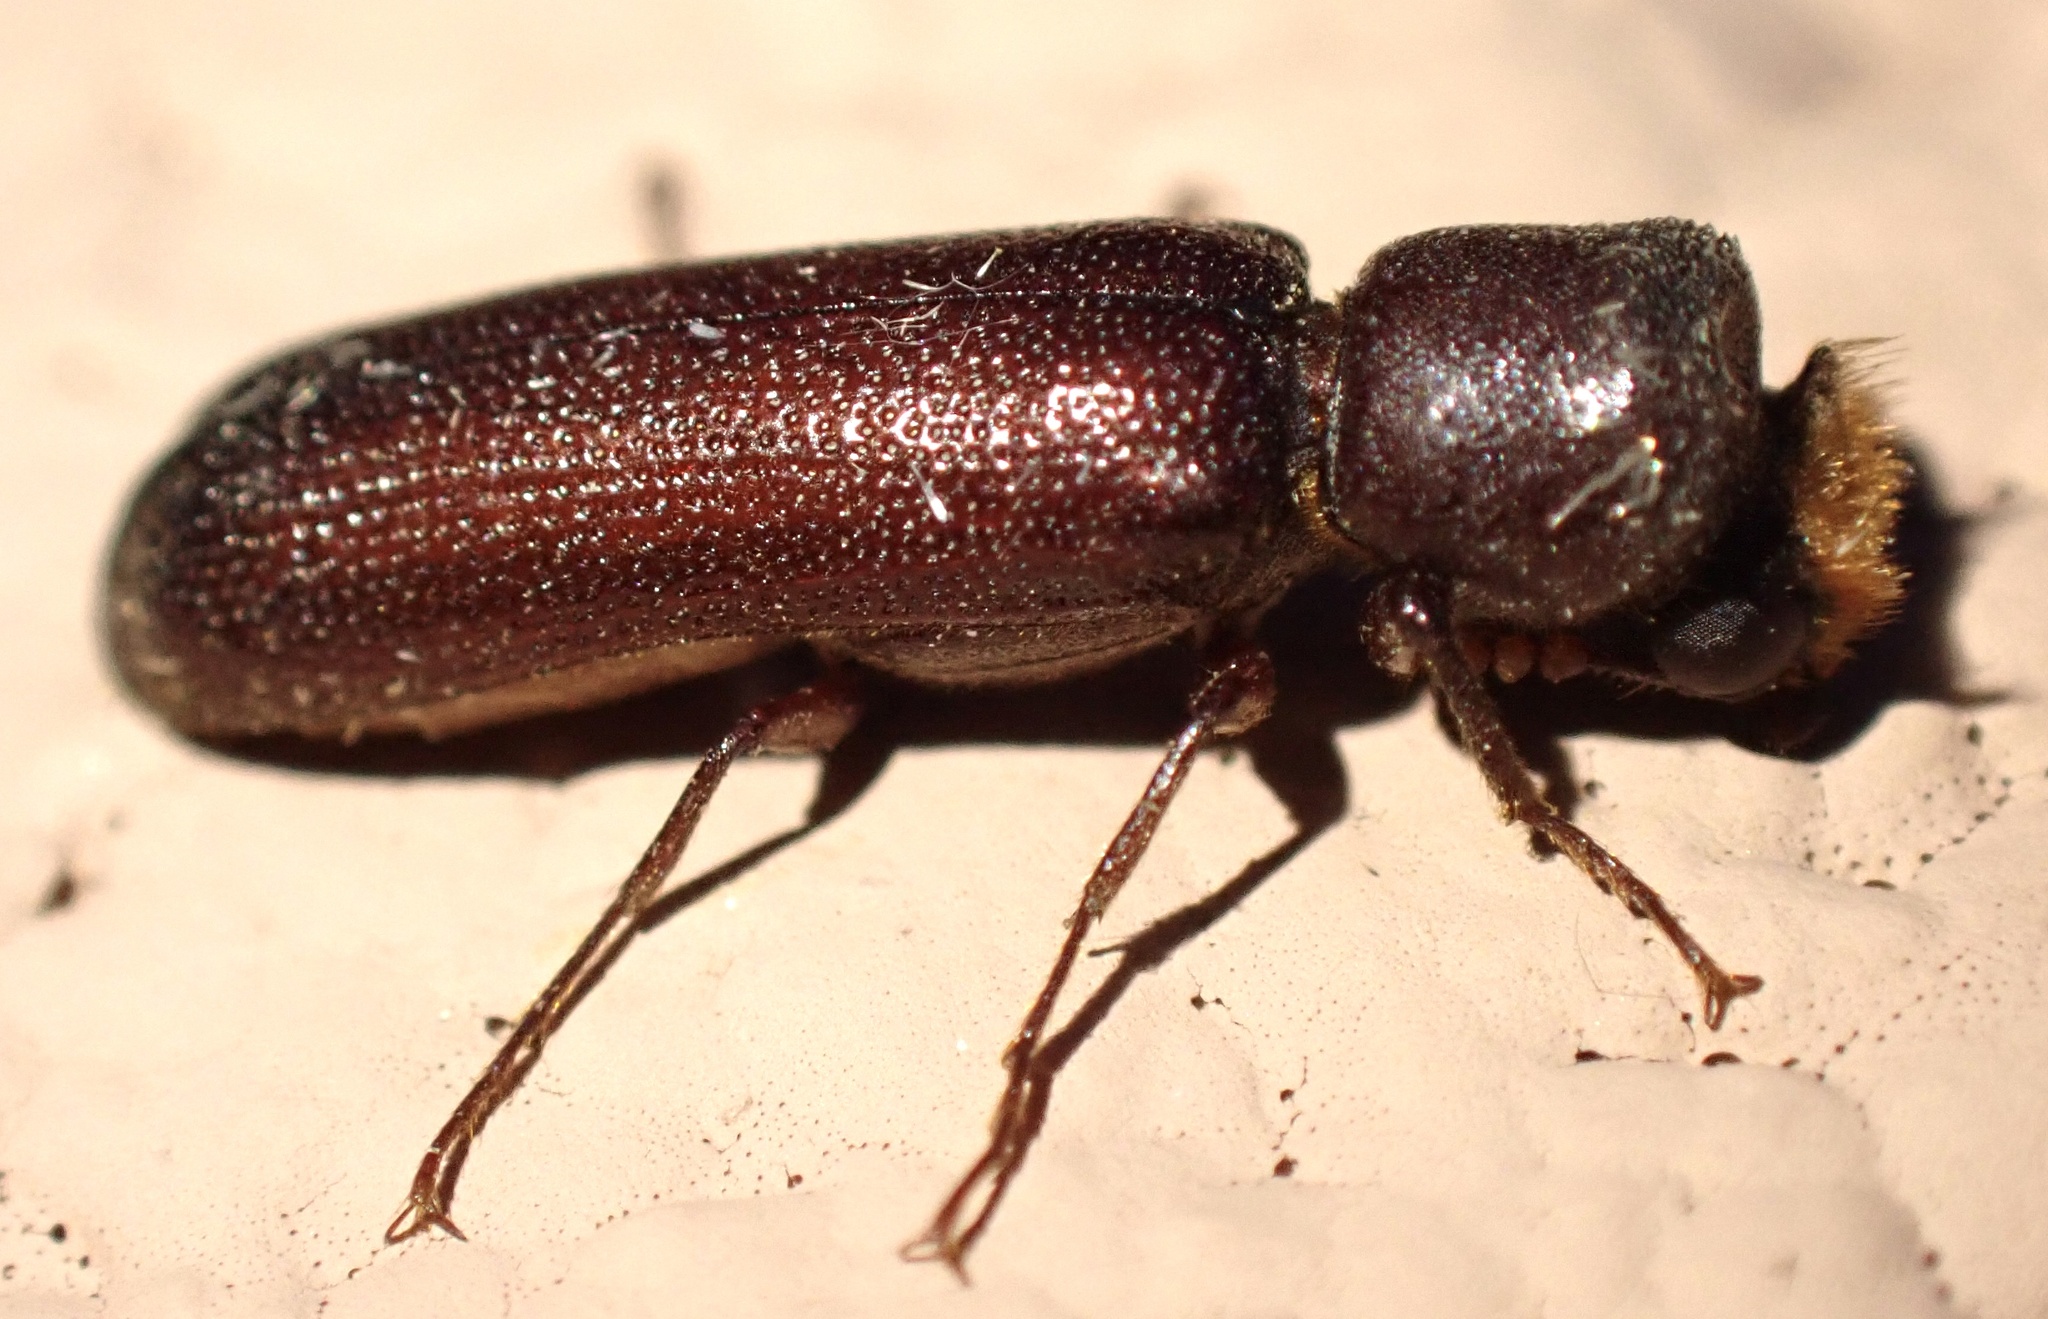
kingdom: Animalia
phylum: Arthropoda
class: Insecta
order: Coleoptera
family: Bostrichidae
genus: Xylomedes
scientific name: Xylomedes coronata
